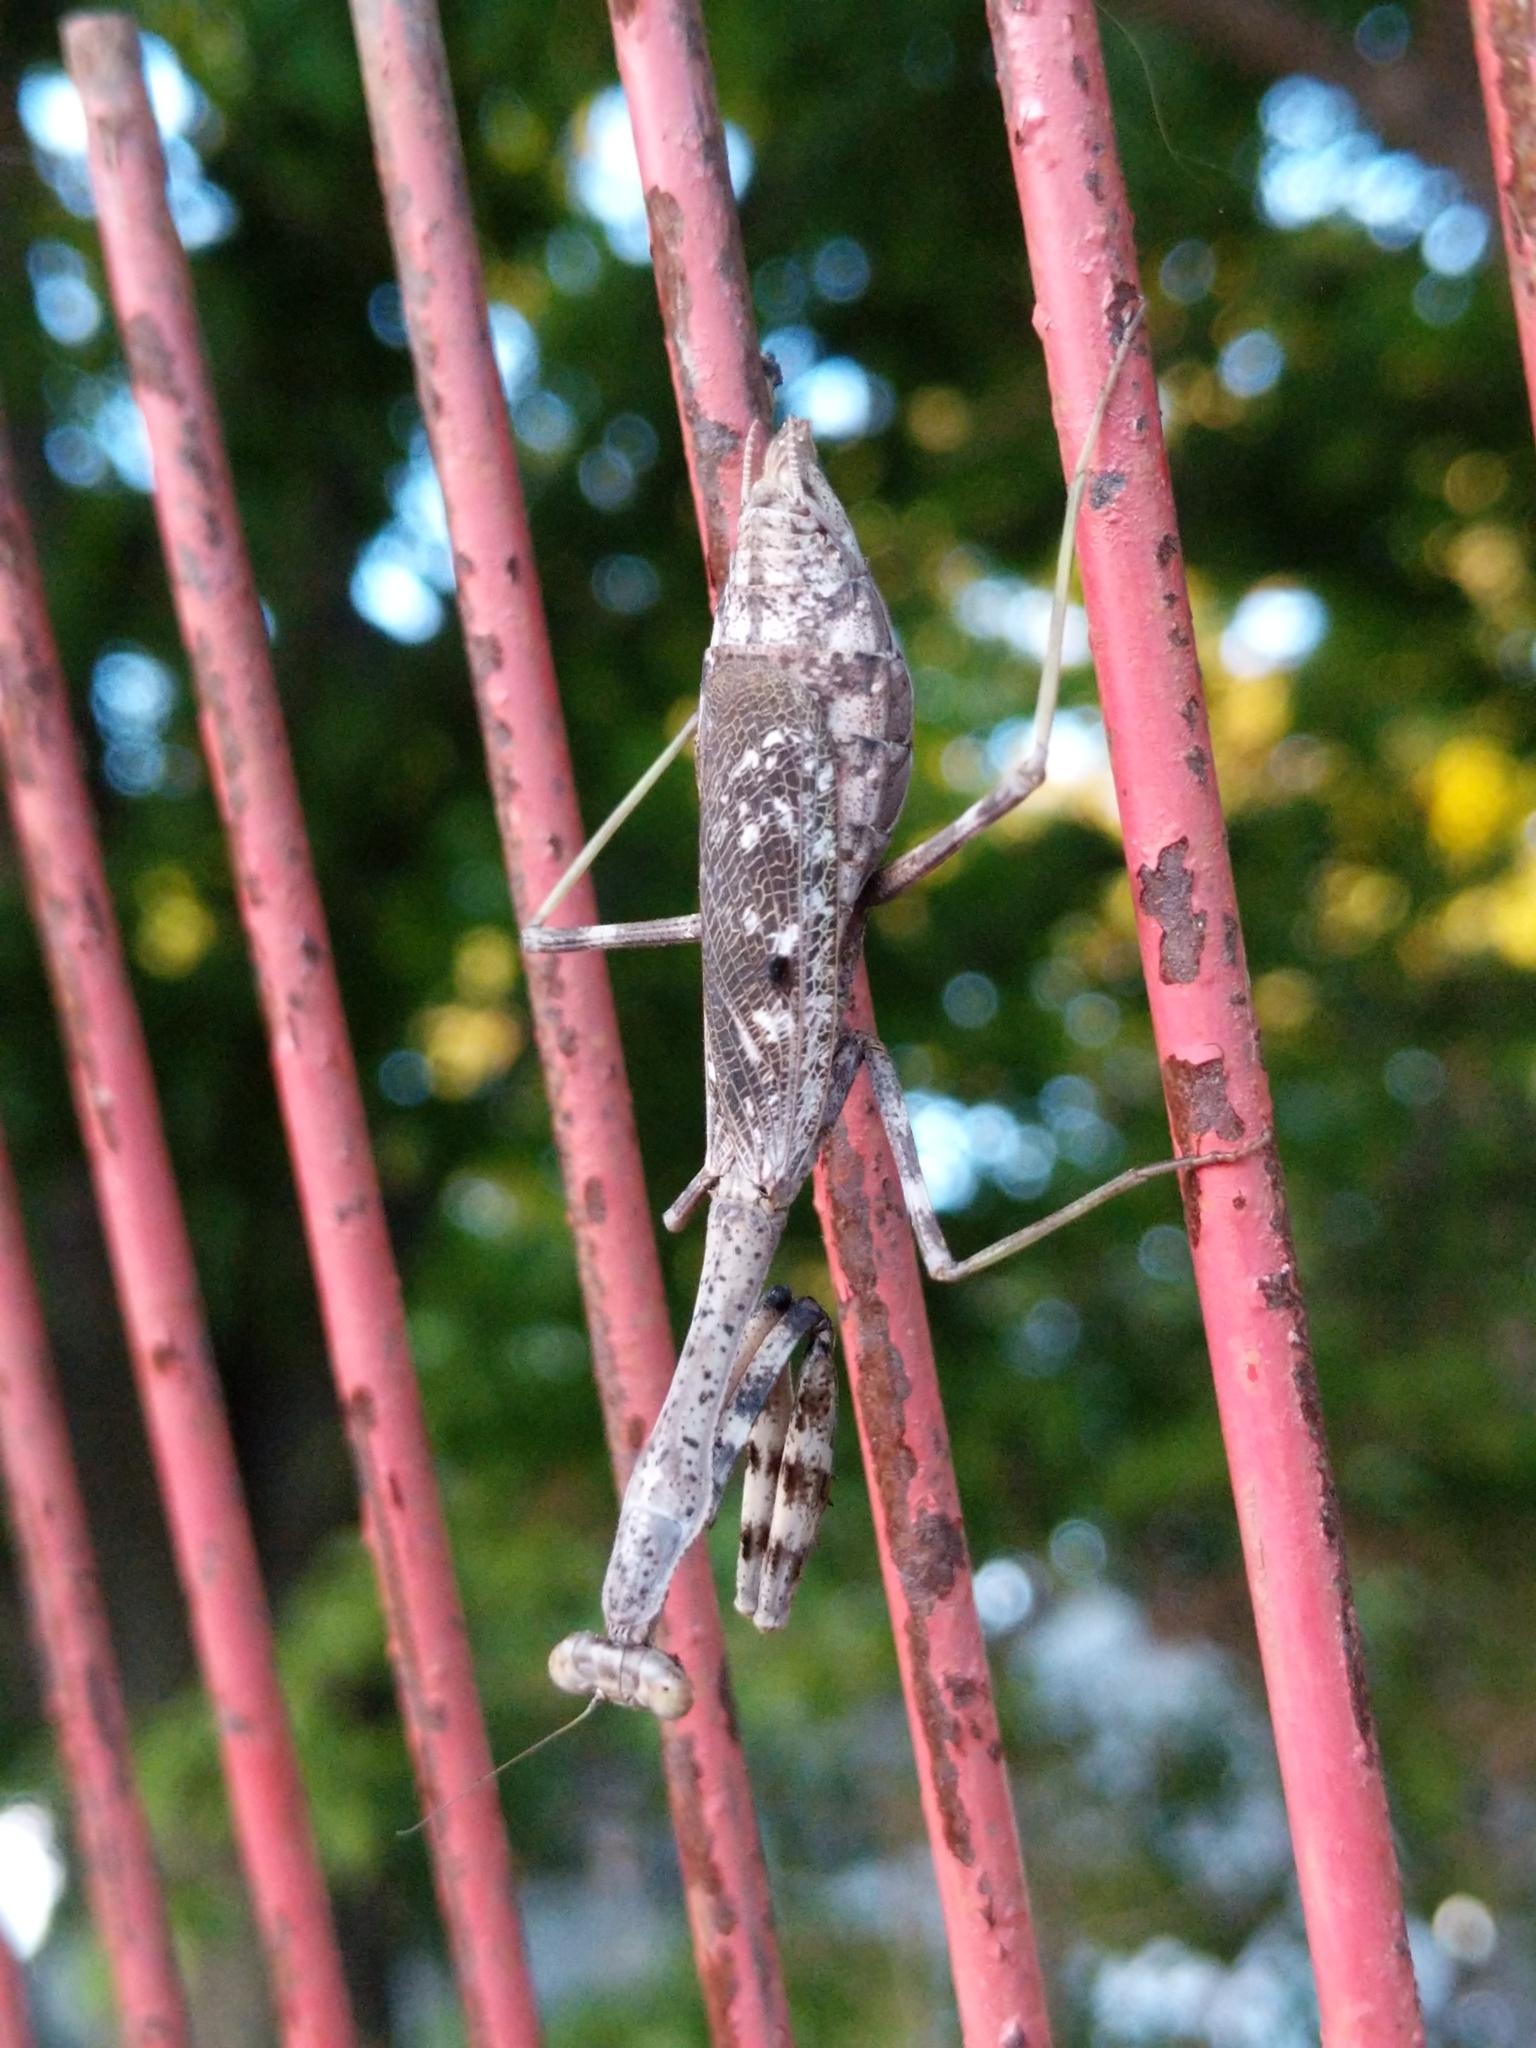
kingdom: Animalia
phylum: Arthropoda
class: Insecta
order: Mantodea
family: Mantidae
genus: Stagmomantis
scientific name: Stagmomantis carolina
